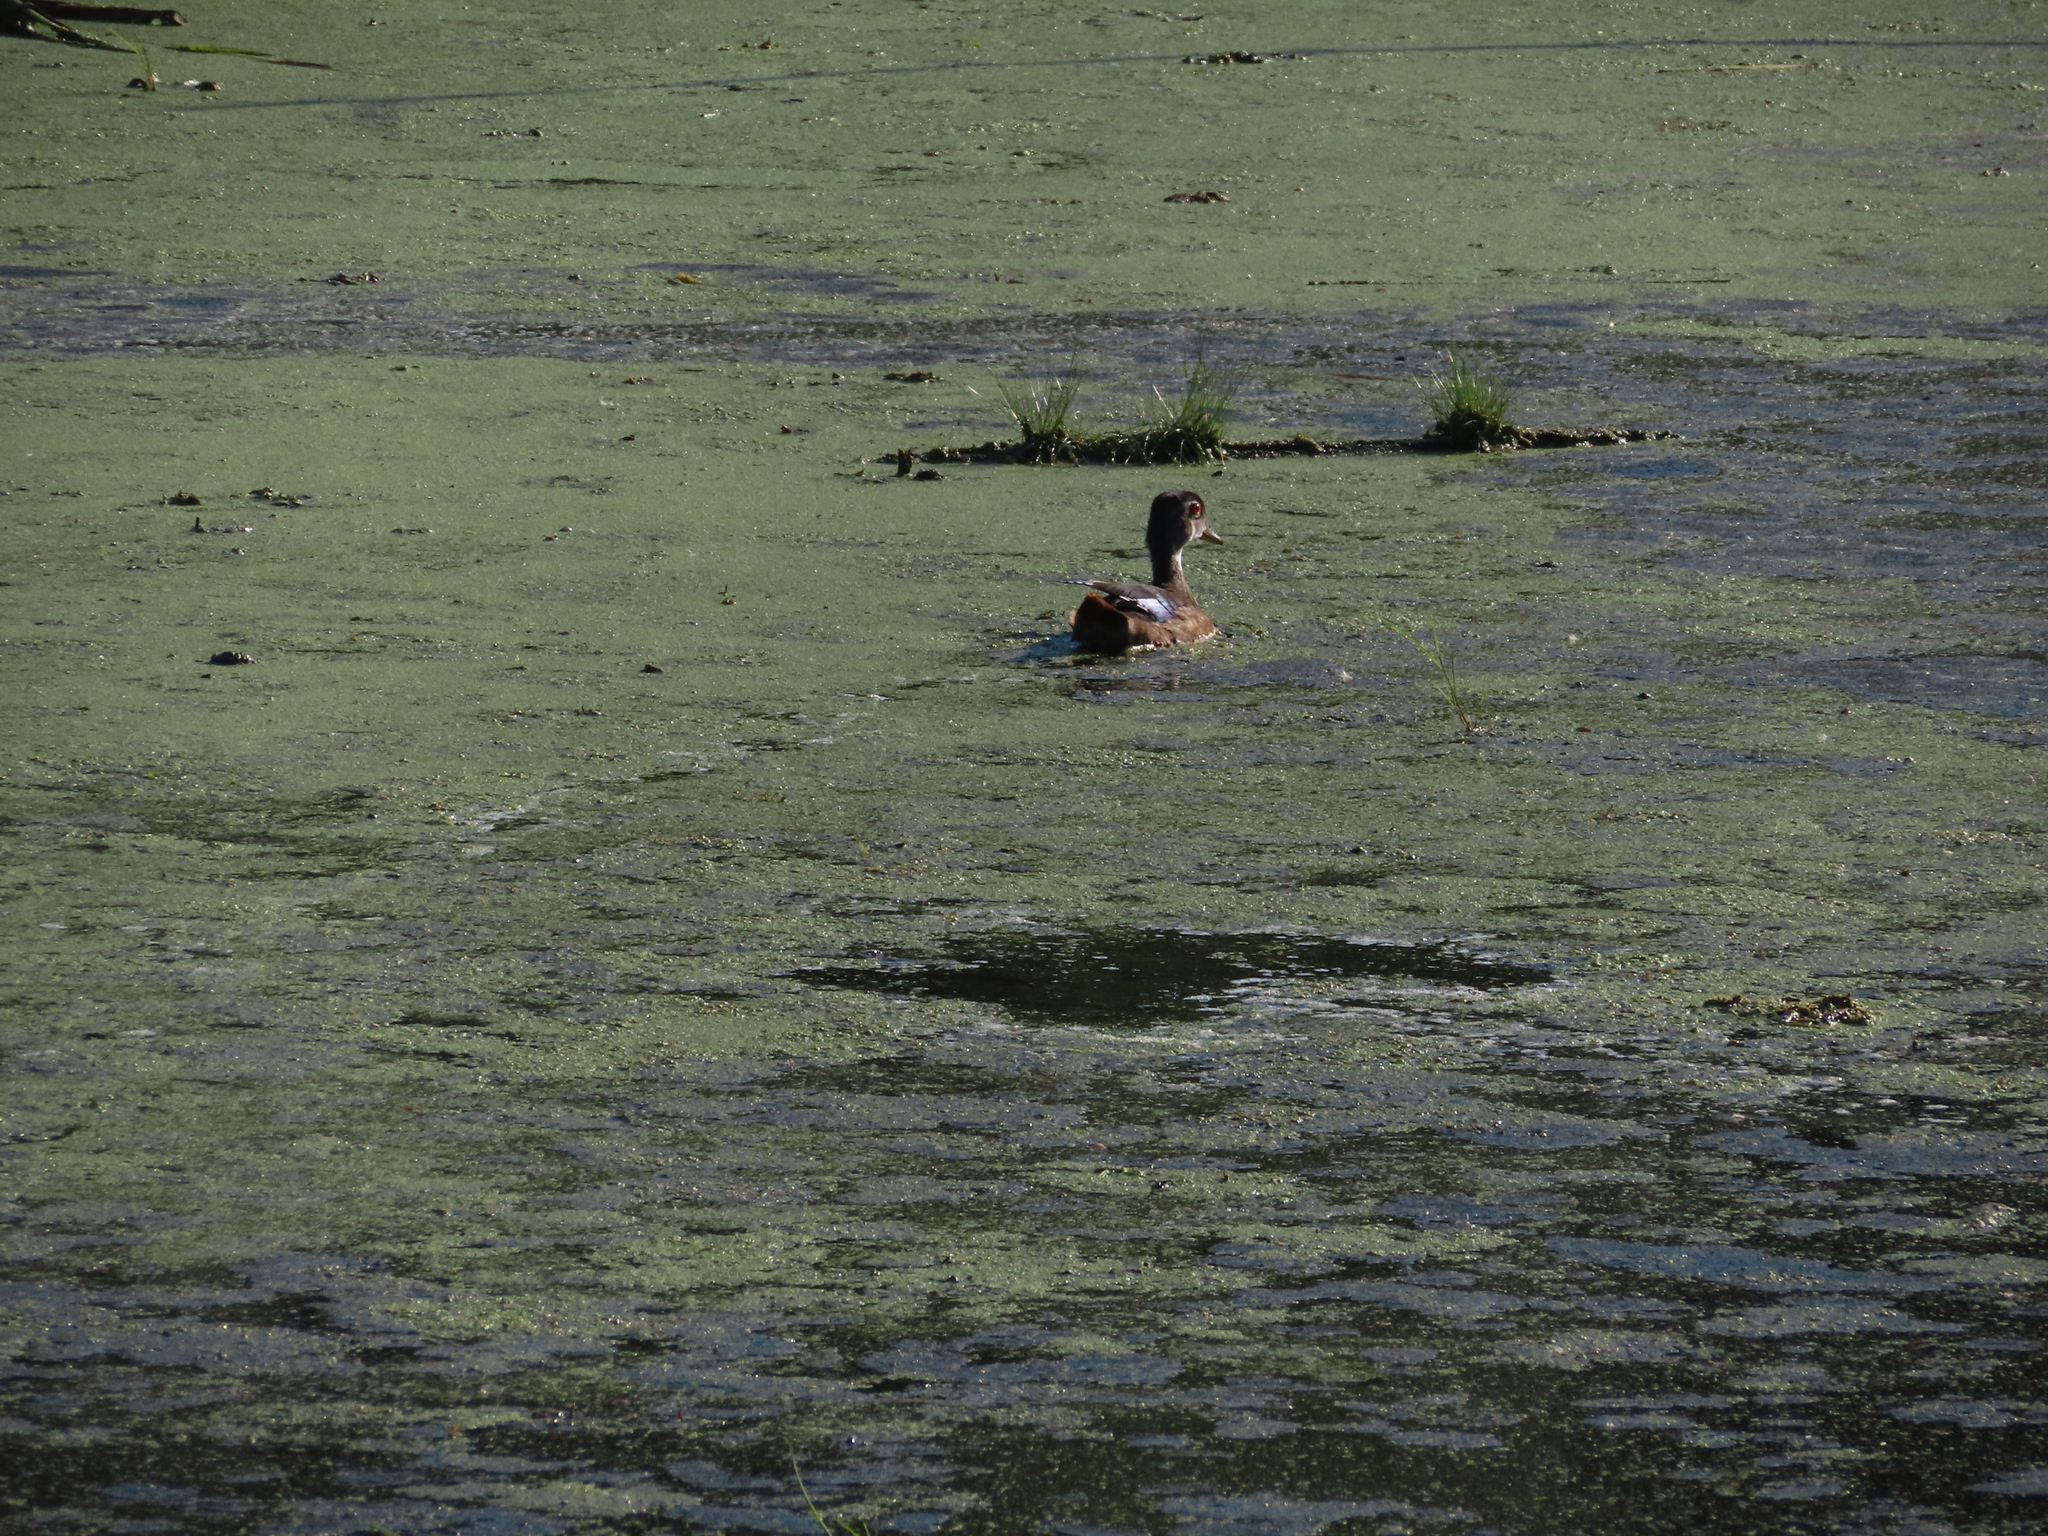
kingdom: Animalia
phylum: Chordata
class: Aves
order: Anseriformes
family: Anatidae
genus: Aix
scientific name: Aix sponsa
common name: Wood duck
